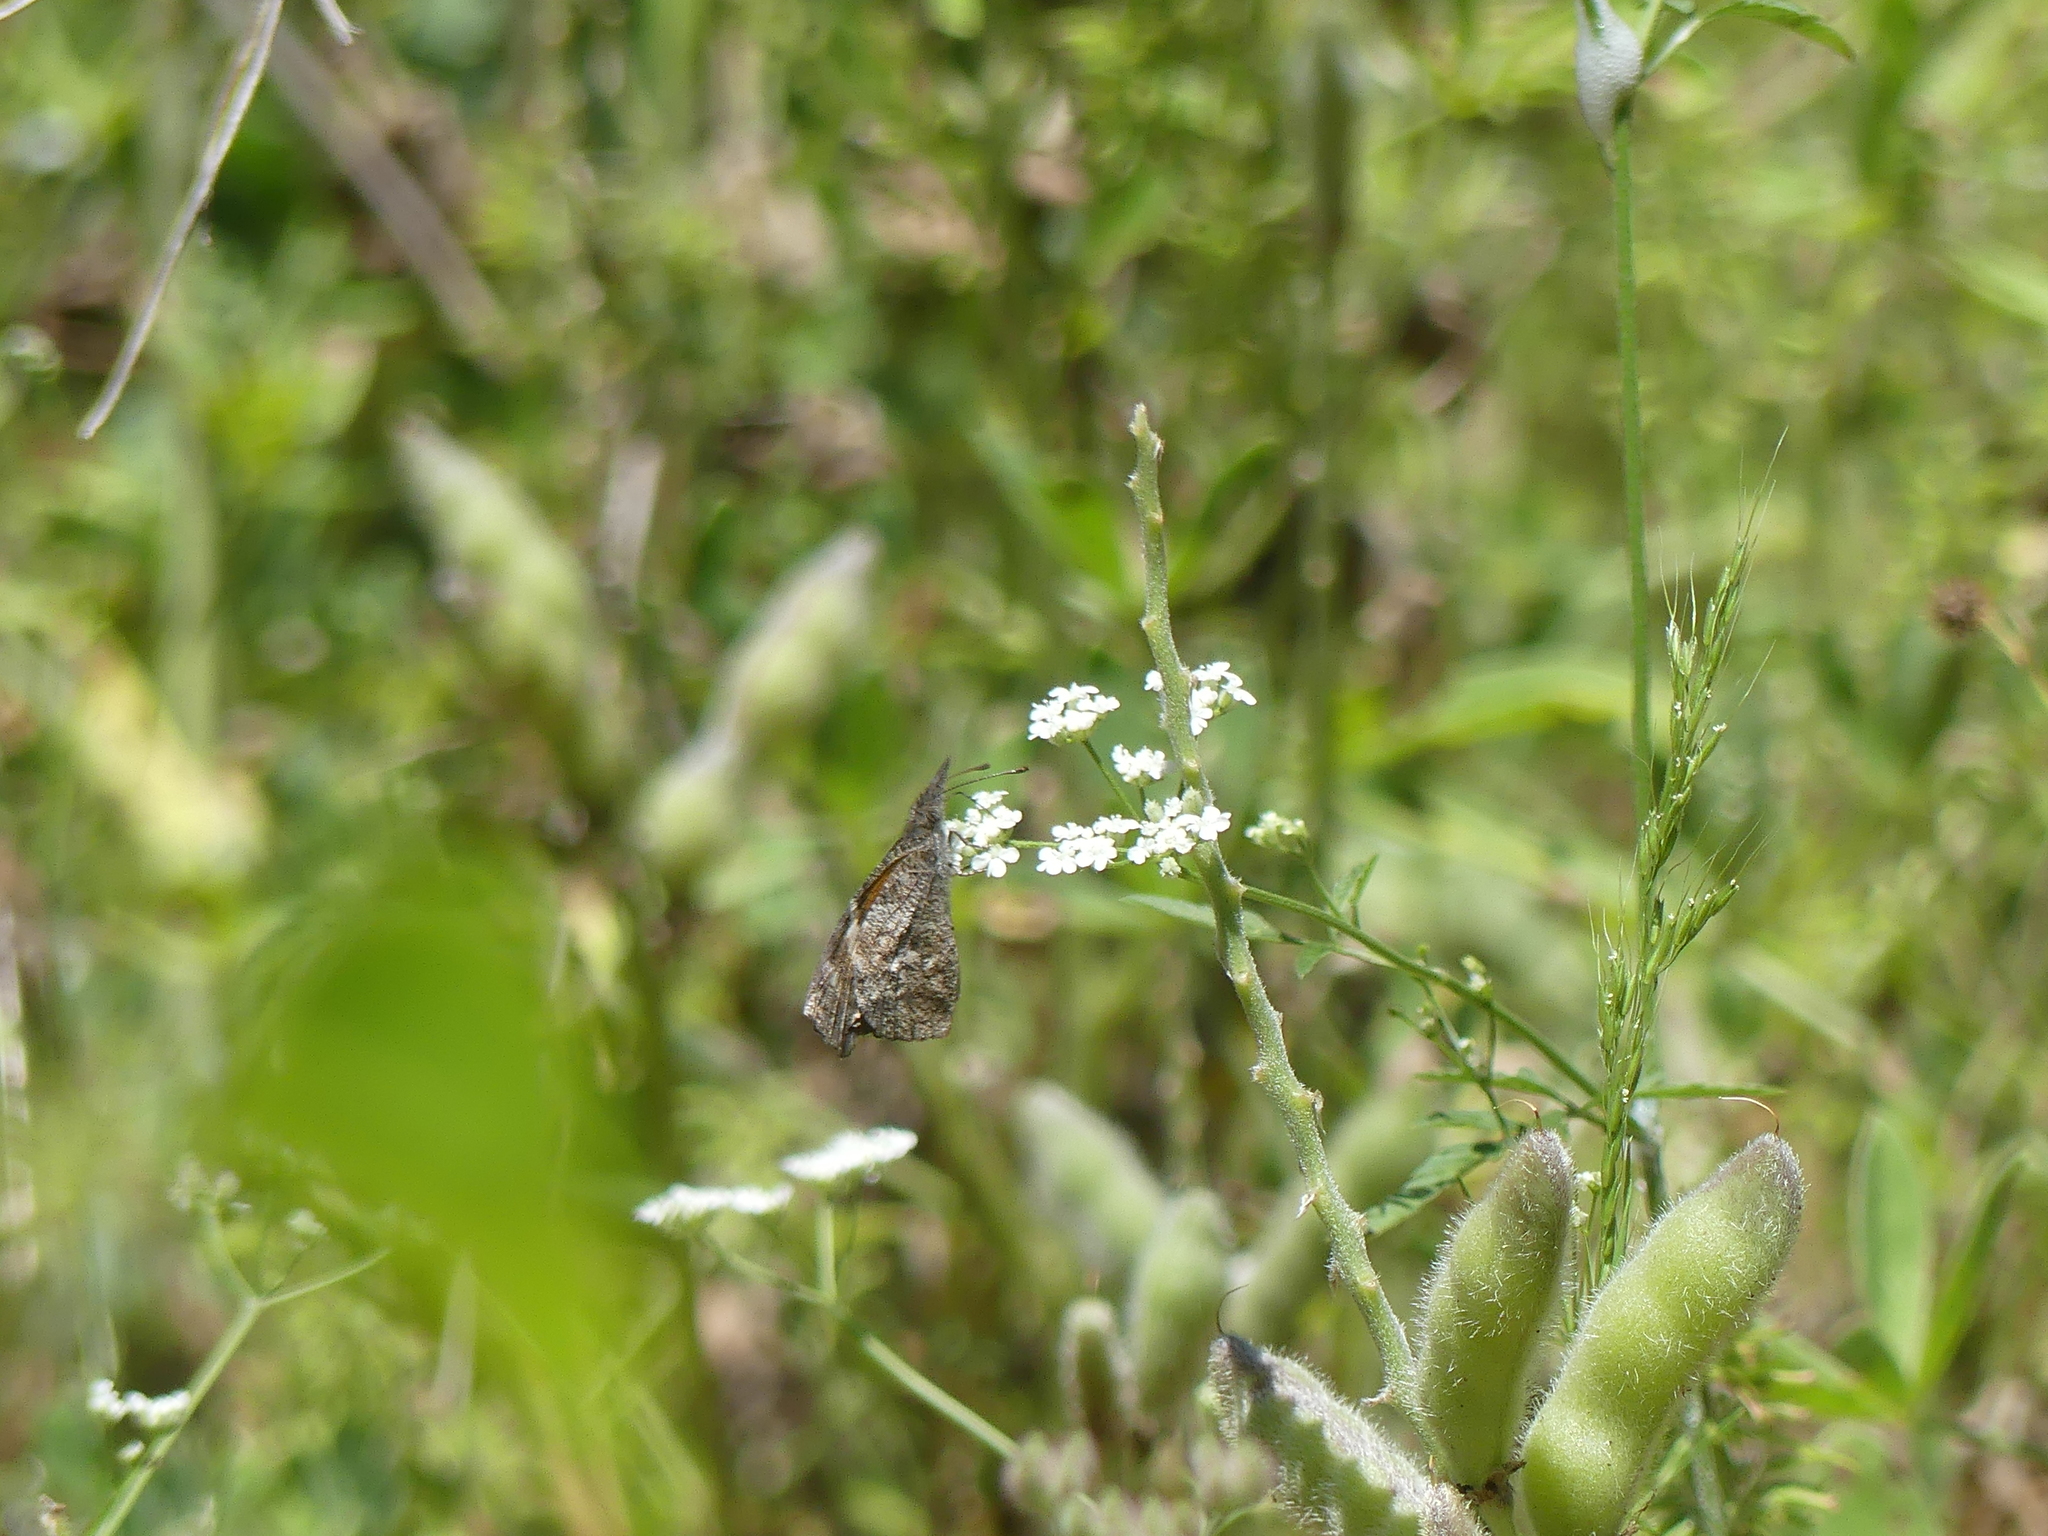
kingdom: Animalia
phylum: Arthropoda
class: Insecta
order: Lepidoptera
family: Nymphalidae
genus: Libytheana
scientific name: Libytheana carinenta
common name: American snout
